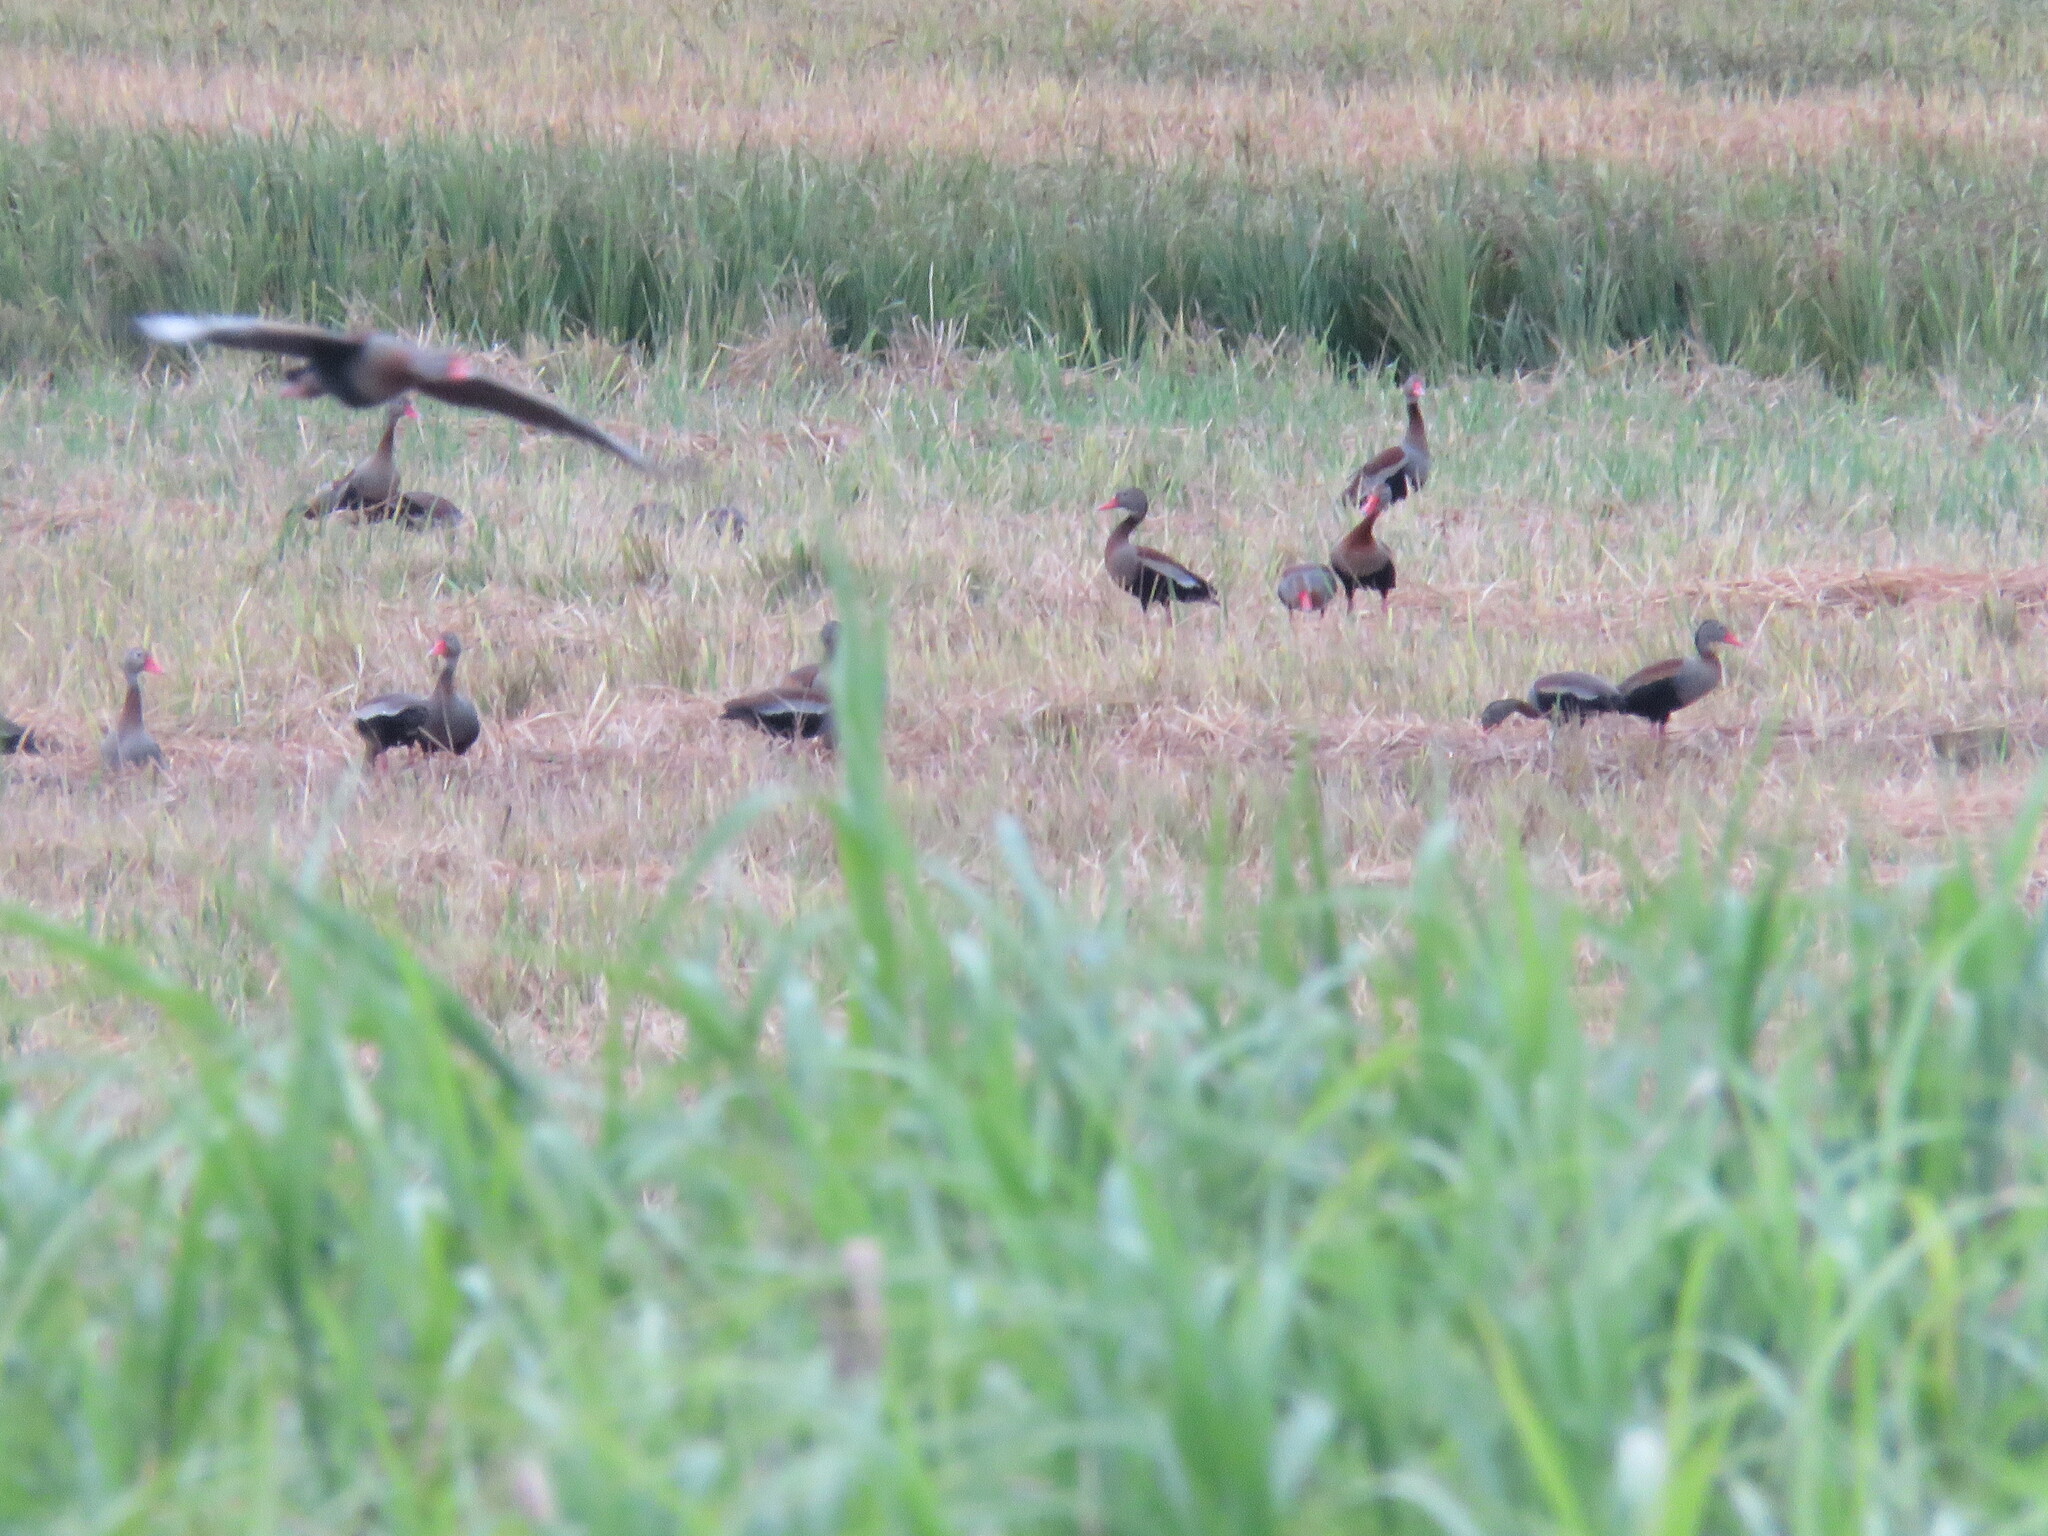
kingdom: Animalia
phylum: Chordata
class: Aves
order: Anseriformes
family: Anatidae
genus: Dendrocygna
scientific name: Dendrocygna autumnalis
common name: Black-bellied whistling duck
